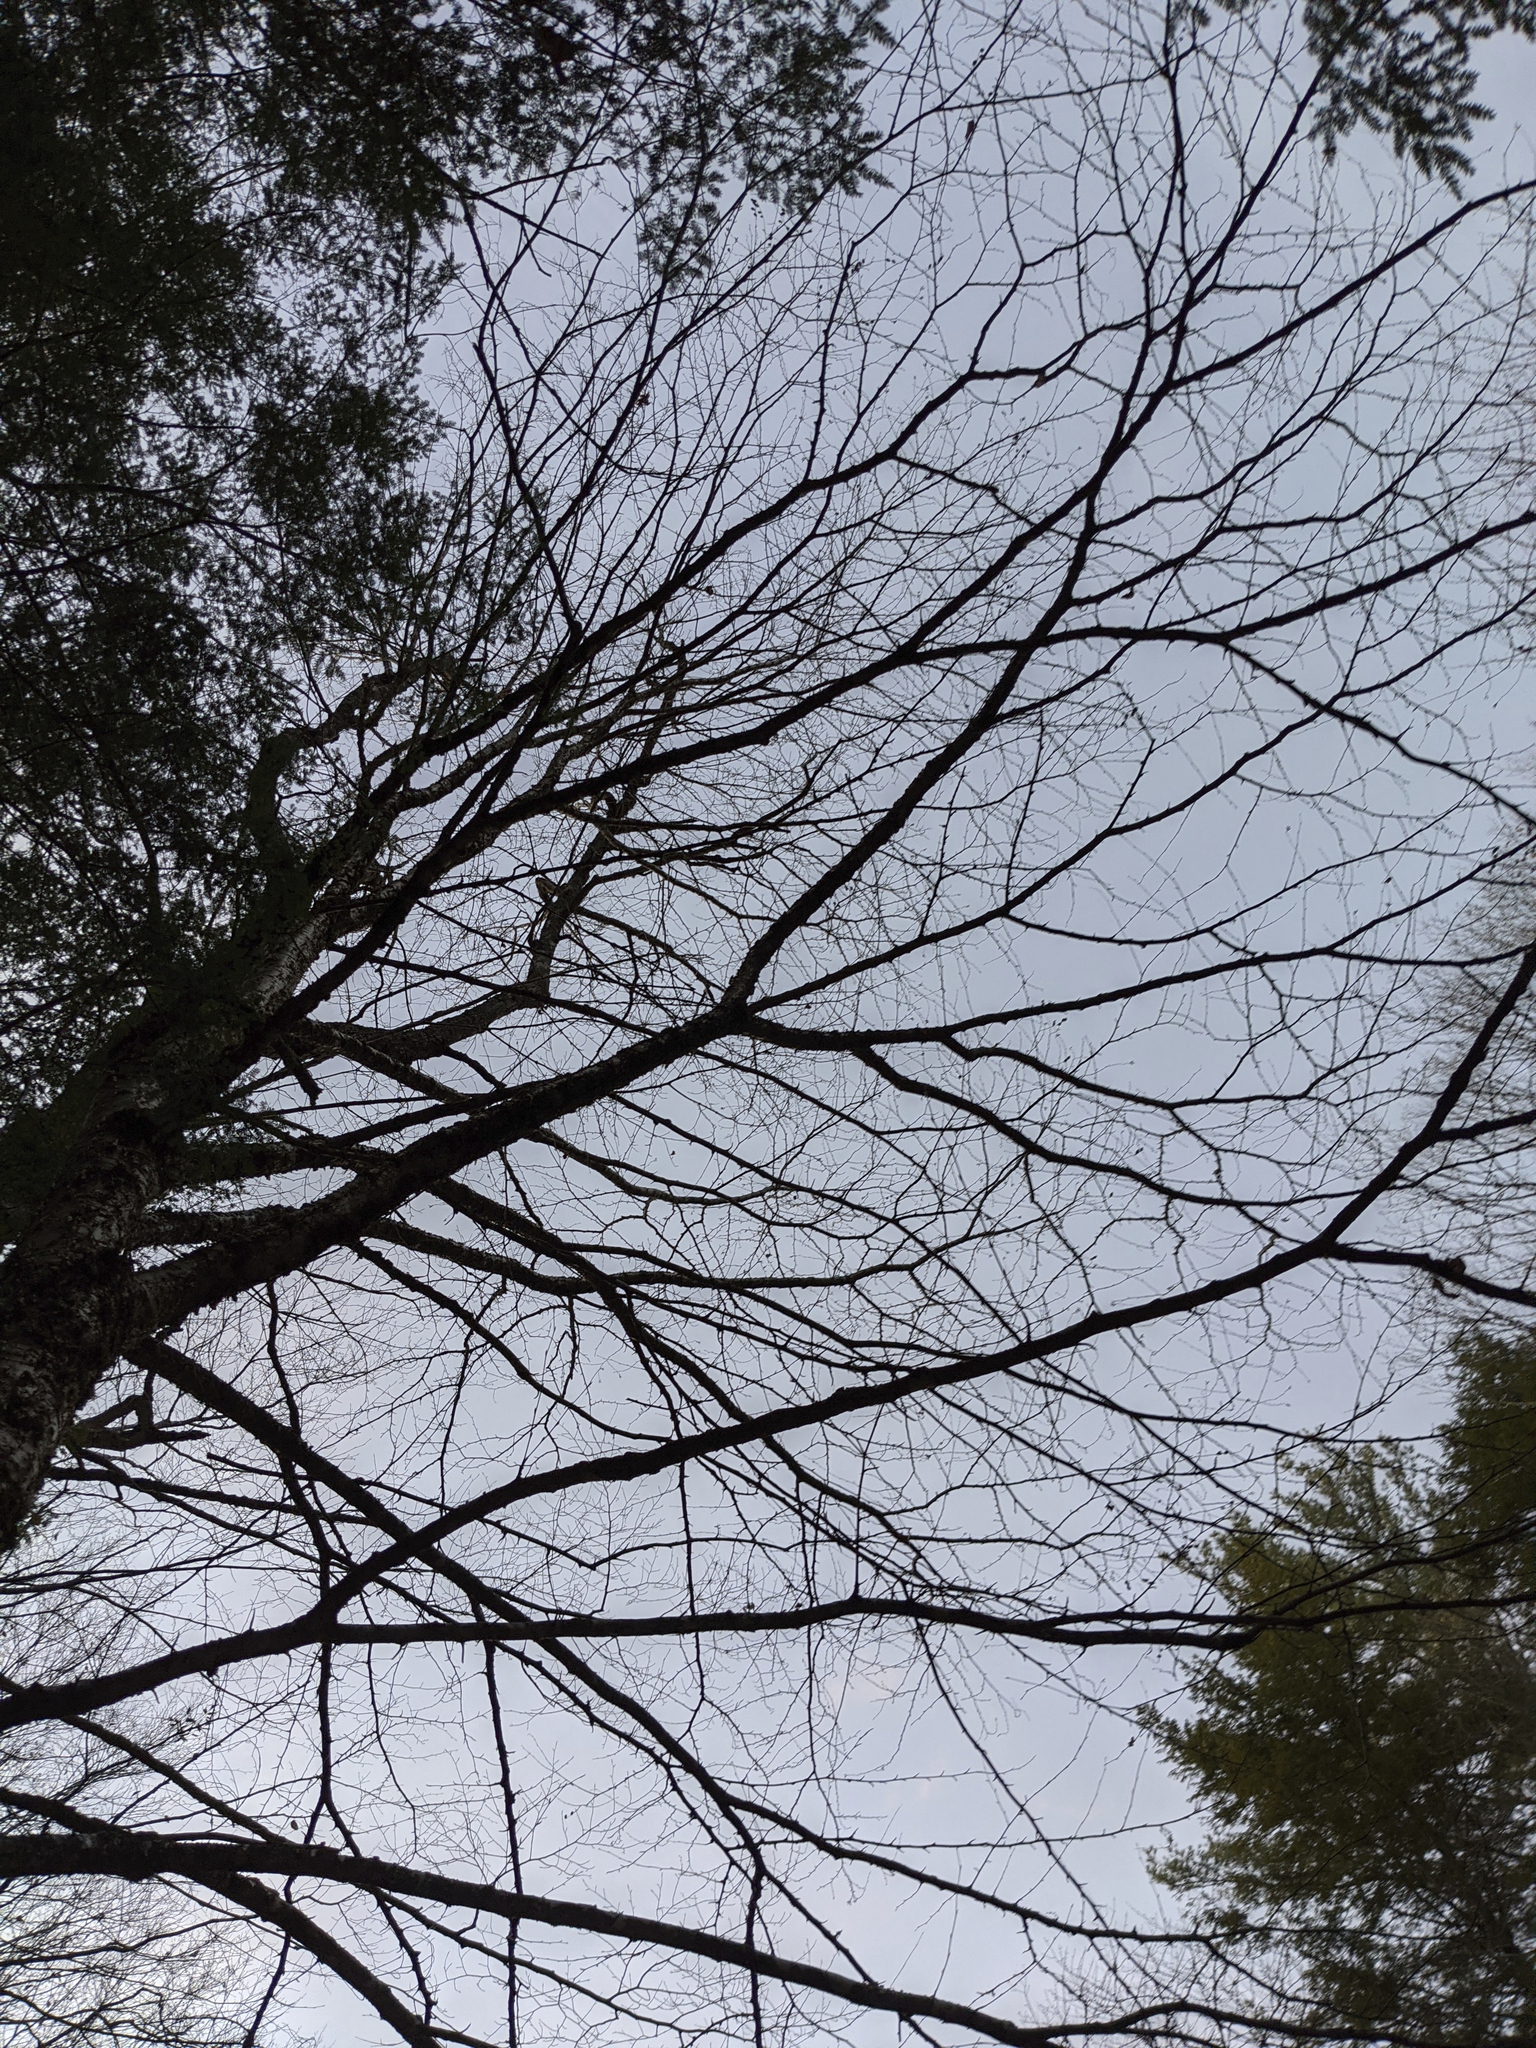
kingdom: Plantae
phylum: Tracheophyta
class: Magnoliopsida
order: Fagales
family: Betulaceae
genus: Betula
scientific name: Betula alleghaniensis
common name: Yellow birch
